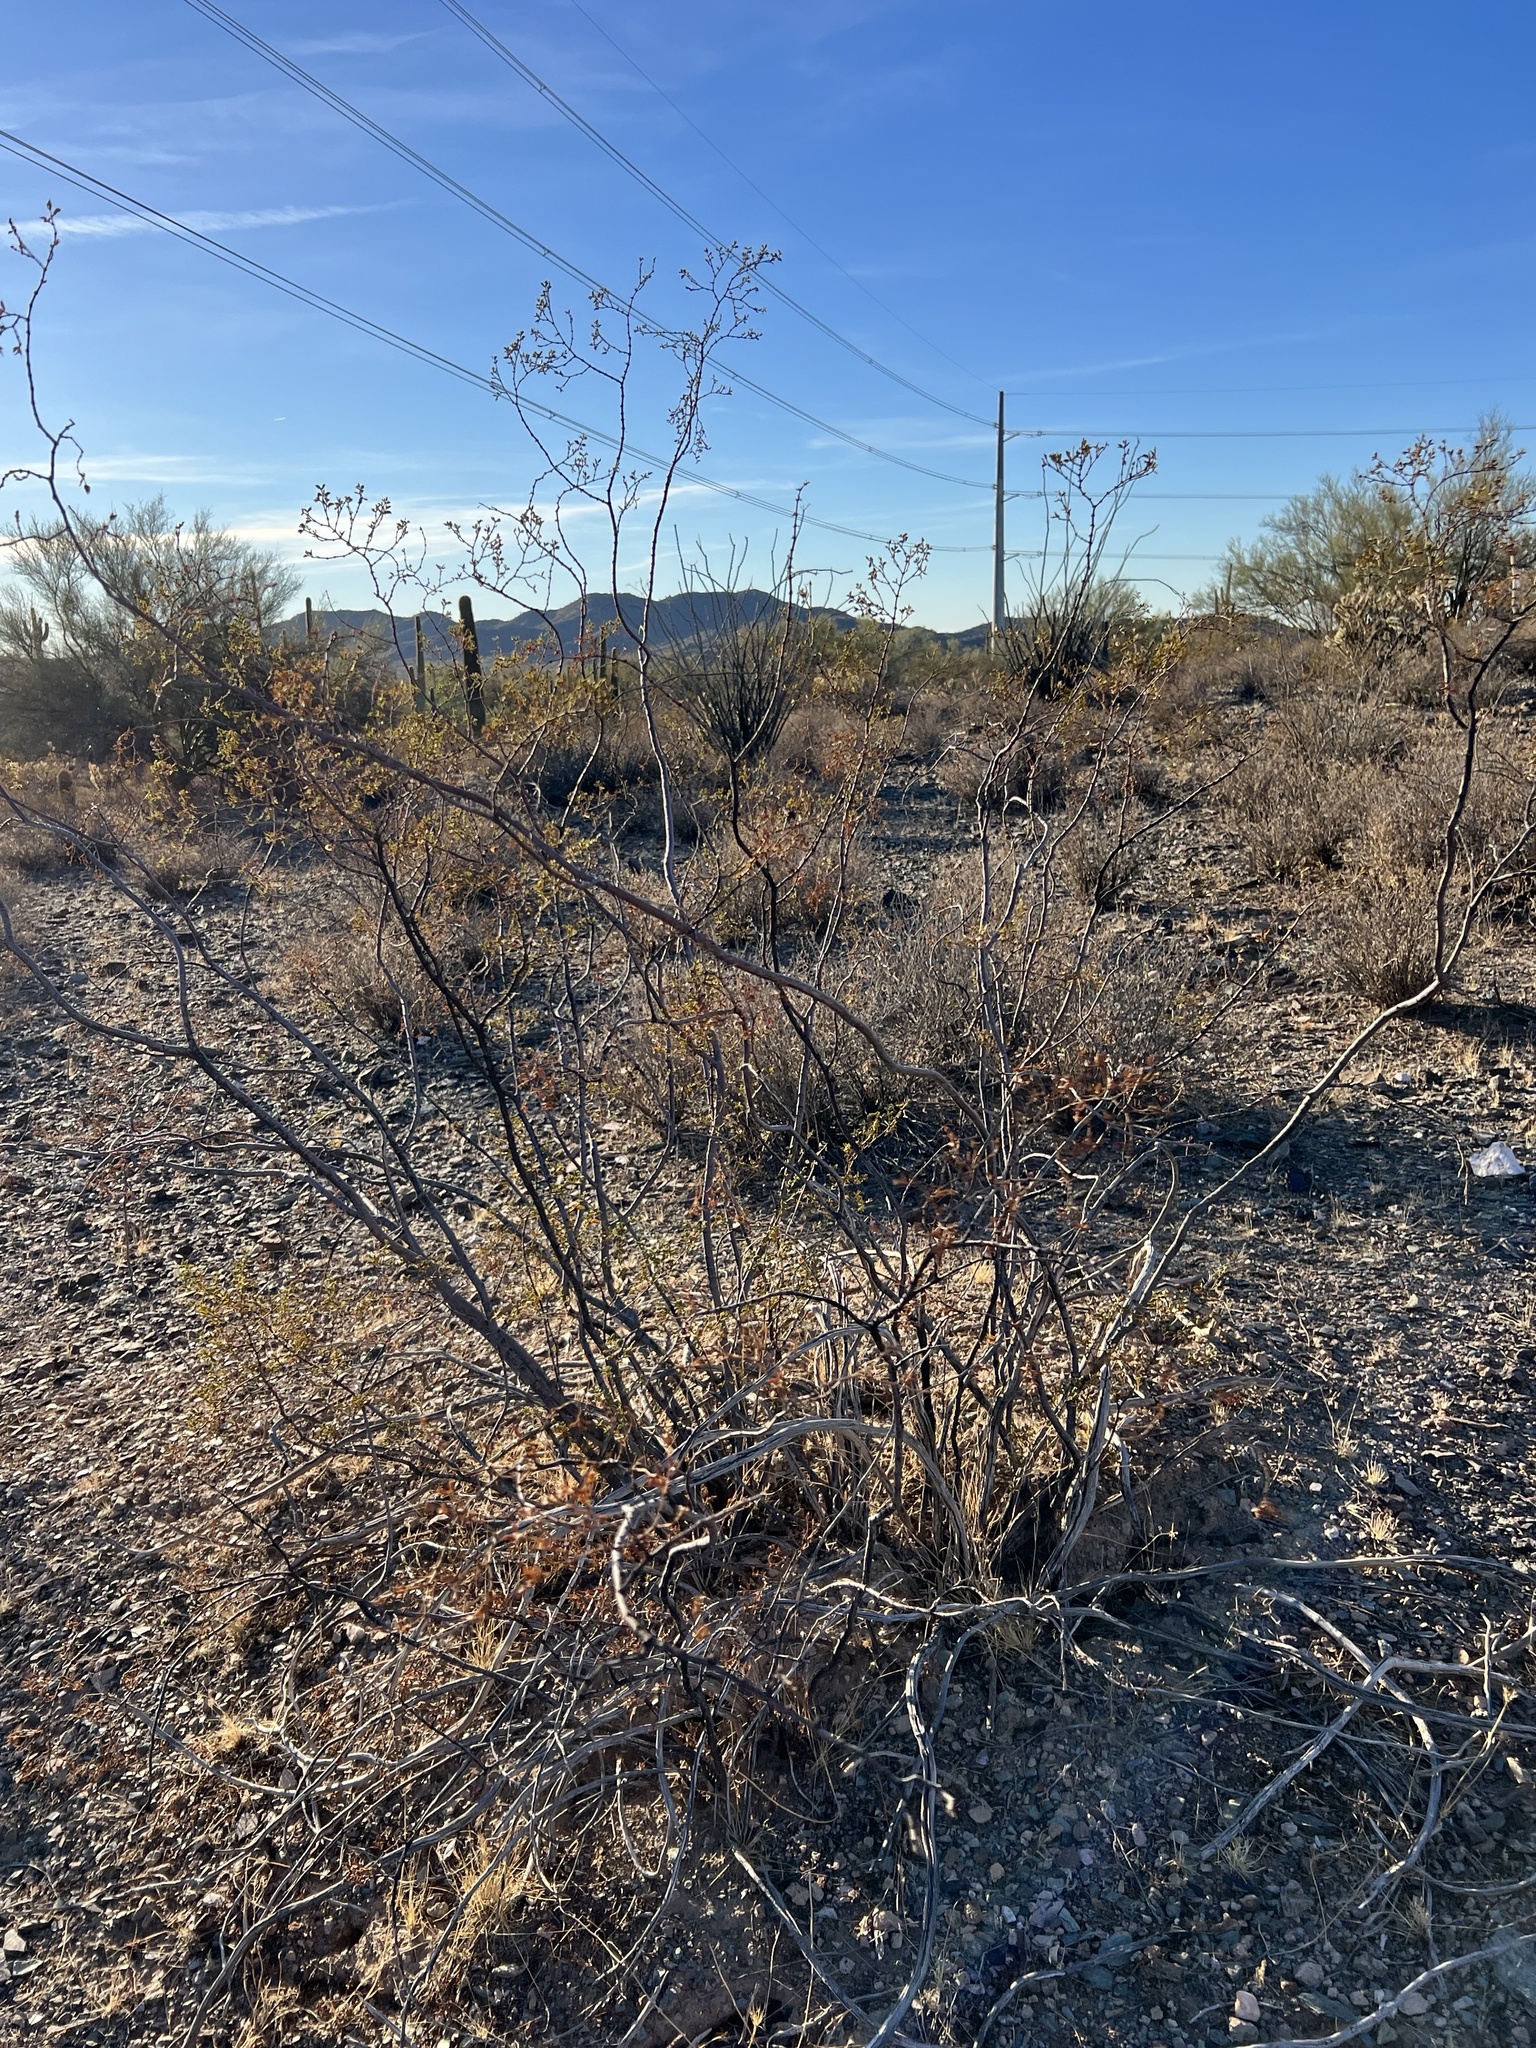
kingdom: Plantae
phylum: Tracheophyta
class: Magnoliopsida
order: Zygophyllales
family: Zygophyllaceae
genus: Larrea
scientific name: Larrea tridentata
